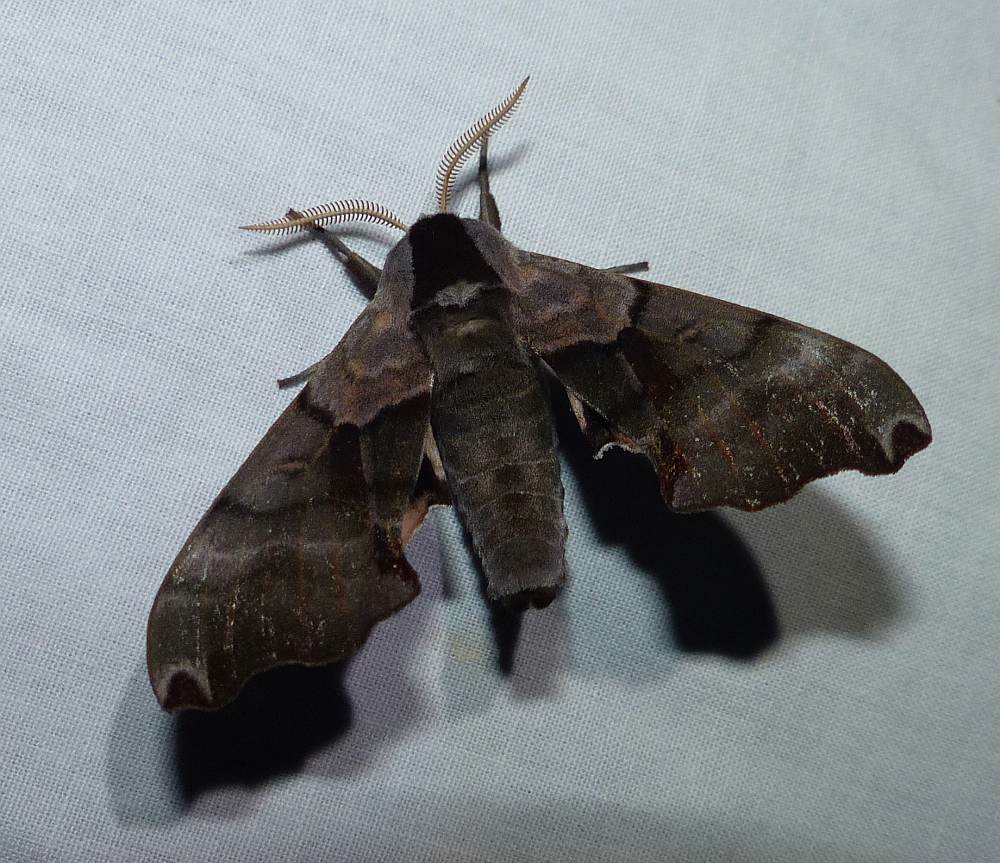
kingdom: Animalia
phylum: Arthropoda
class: Insecta
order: Lepidoptera
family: Sphingidae
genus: Smerinthus
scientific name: Smerinthus jamaicensis
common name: Twin spotted sphinx
